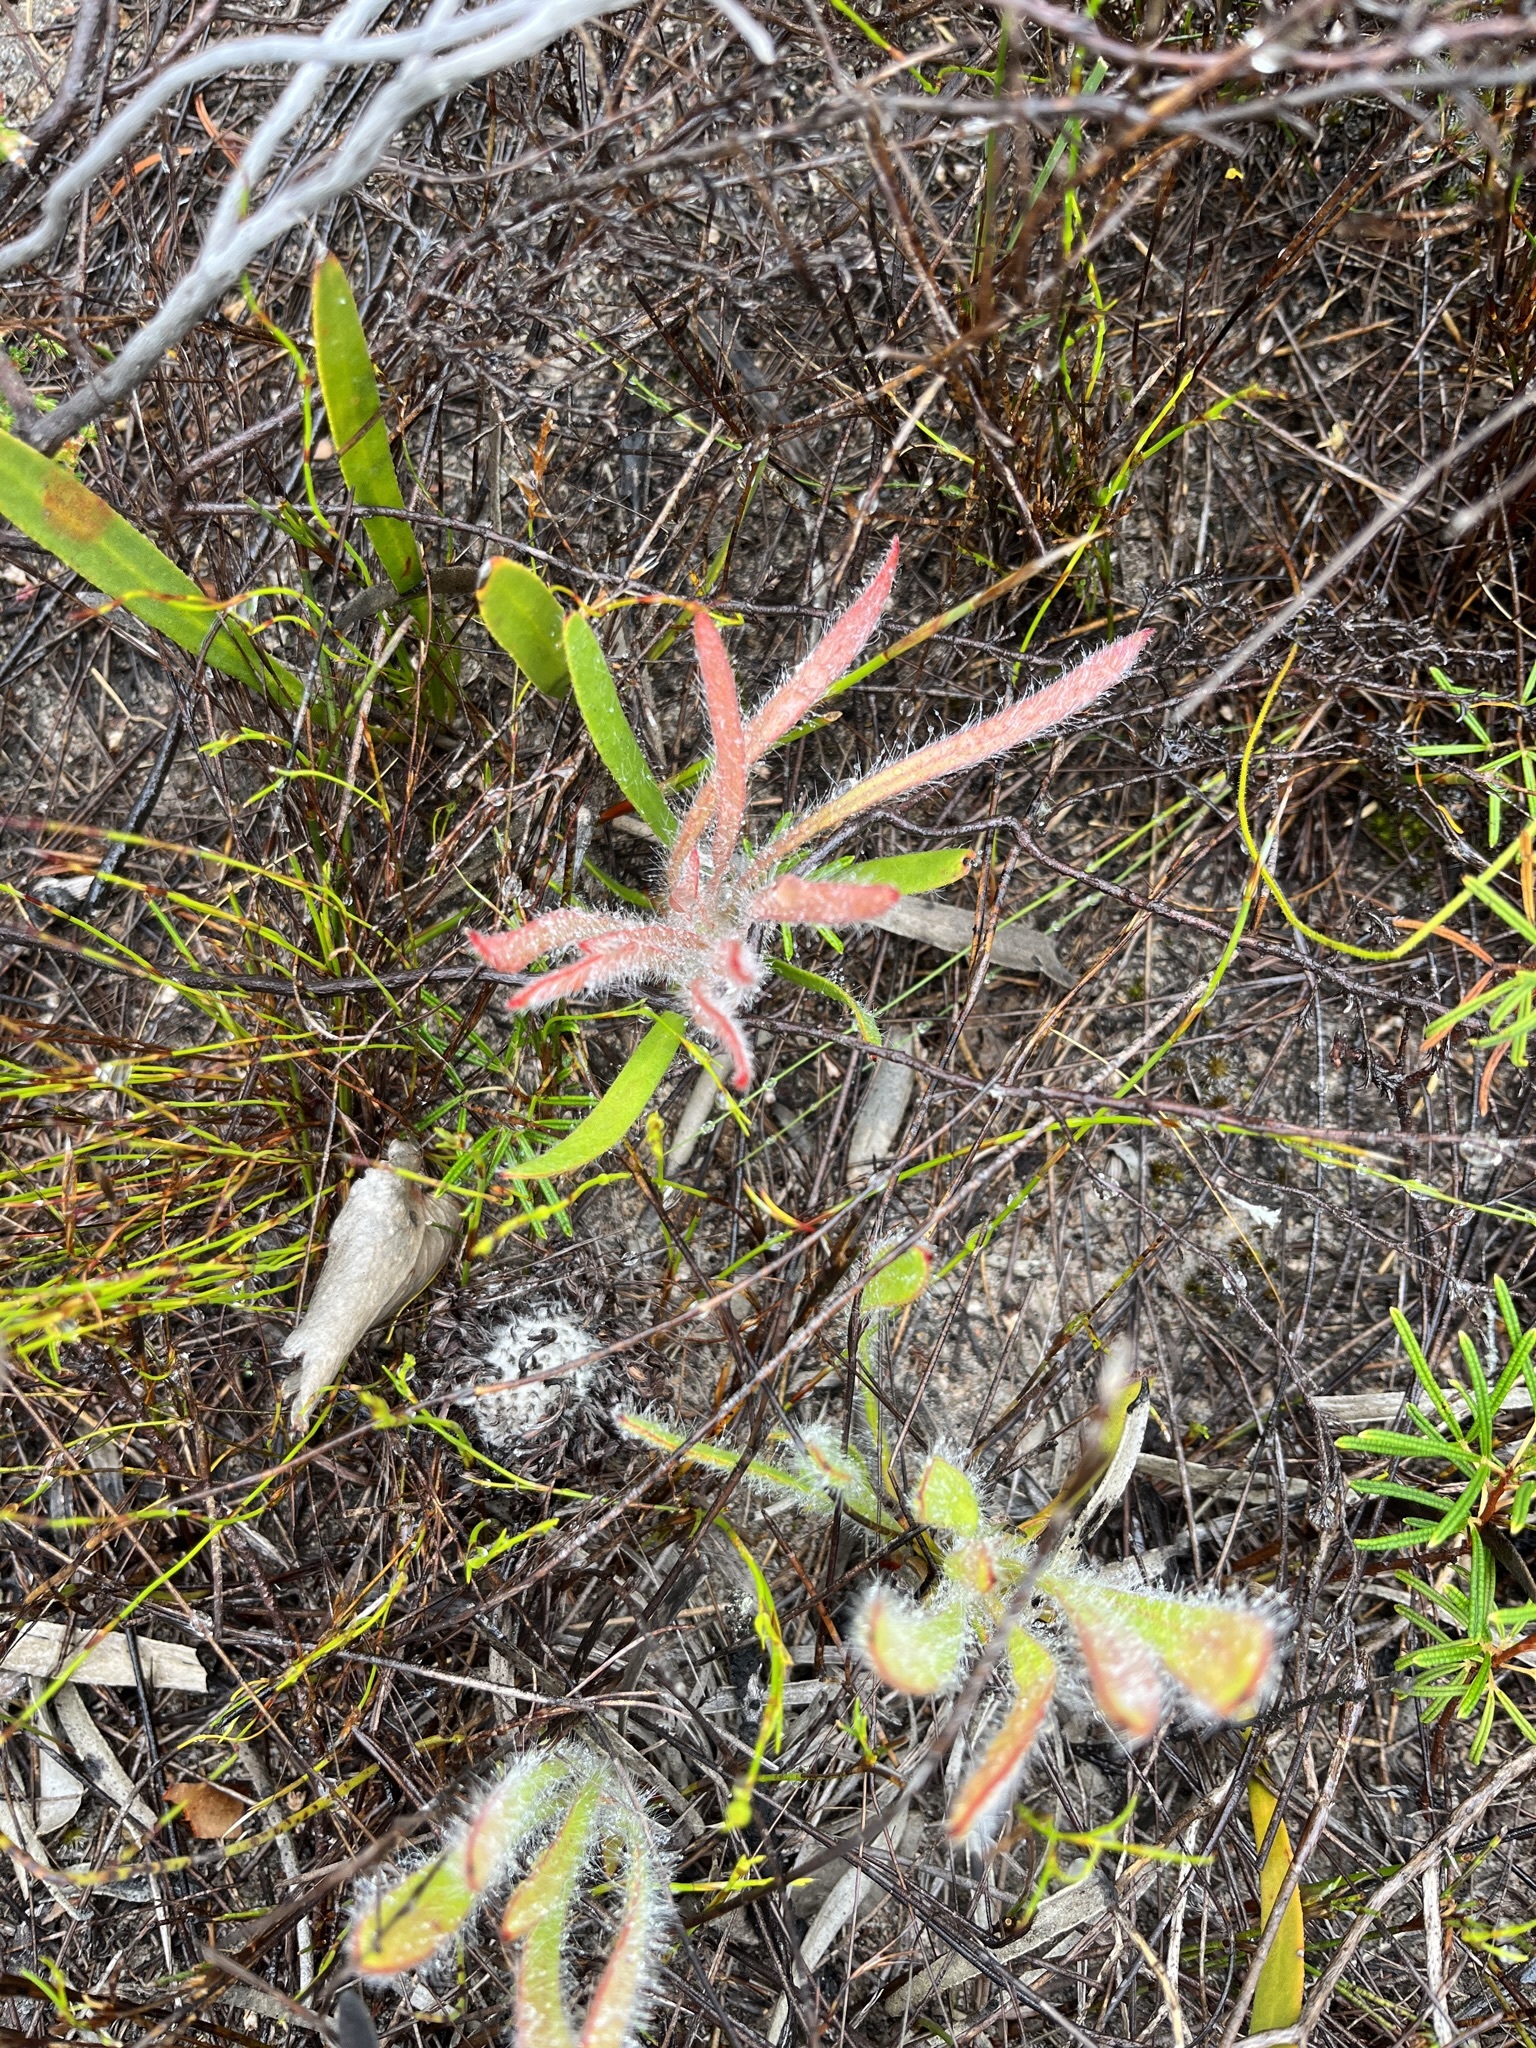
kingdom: Plantae
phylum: Tracheophyta
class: Magnoliopsida
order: Proteales
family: Proteaceae
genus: Protea
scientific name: Protea aspera
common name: Rough-leaf sugarbush
